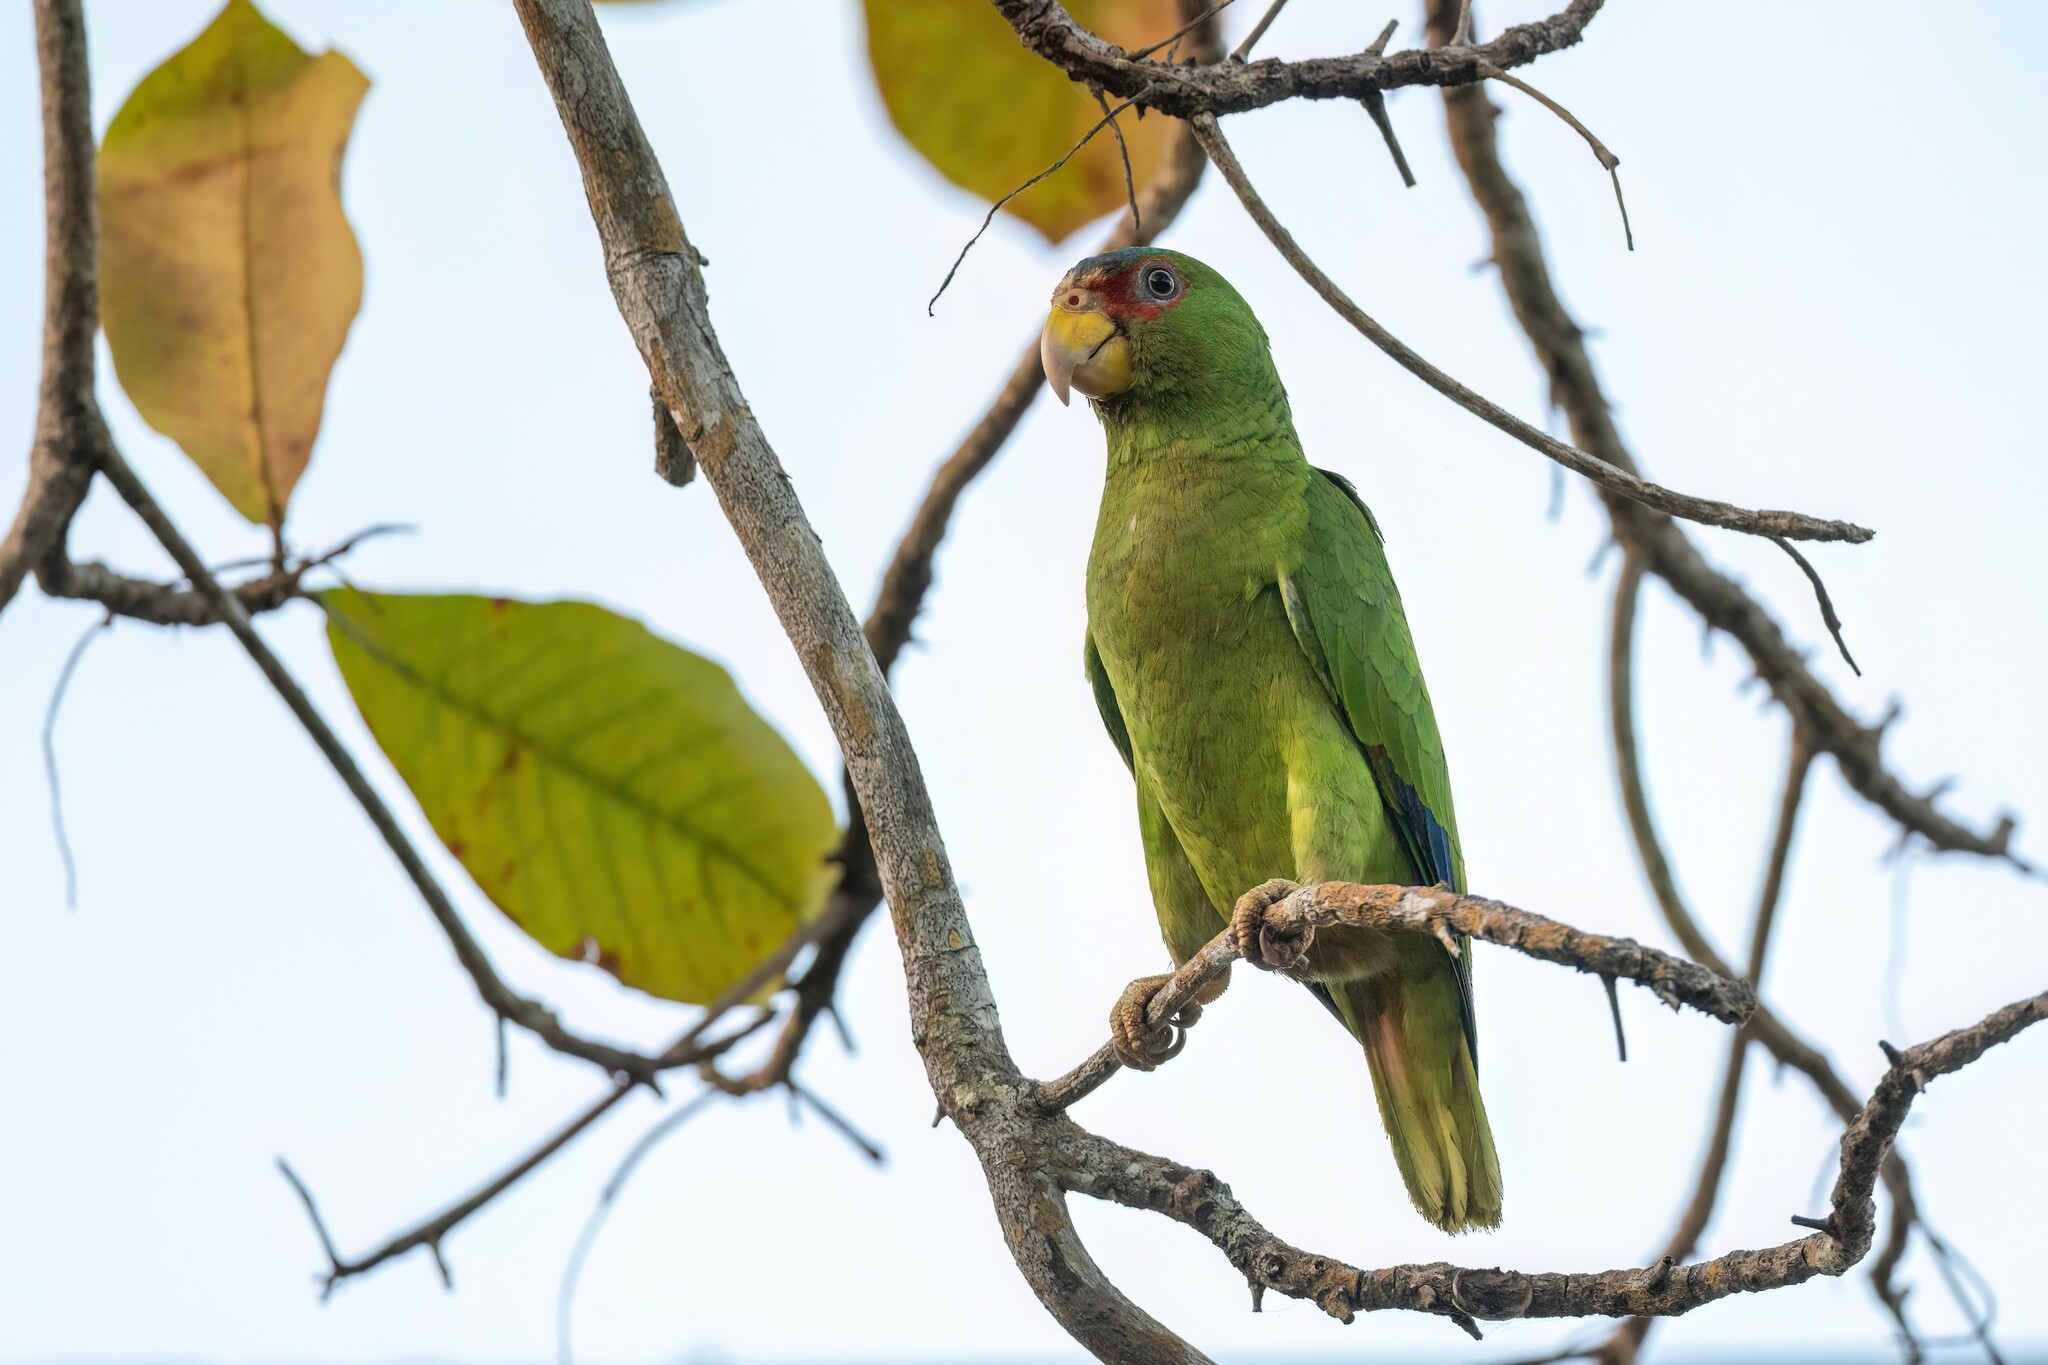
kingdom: Animalia
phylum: Chordata
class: Aves
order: Psittaciformes
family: Psittacidae
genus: Amazona
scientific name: Amazona albifrons
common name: White-fronted amazon
